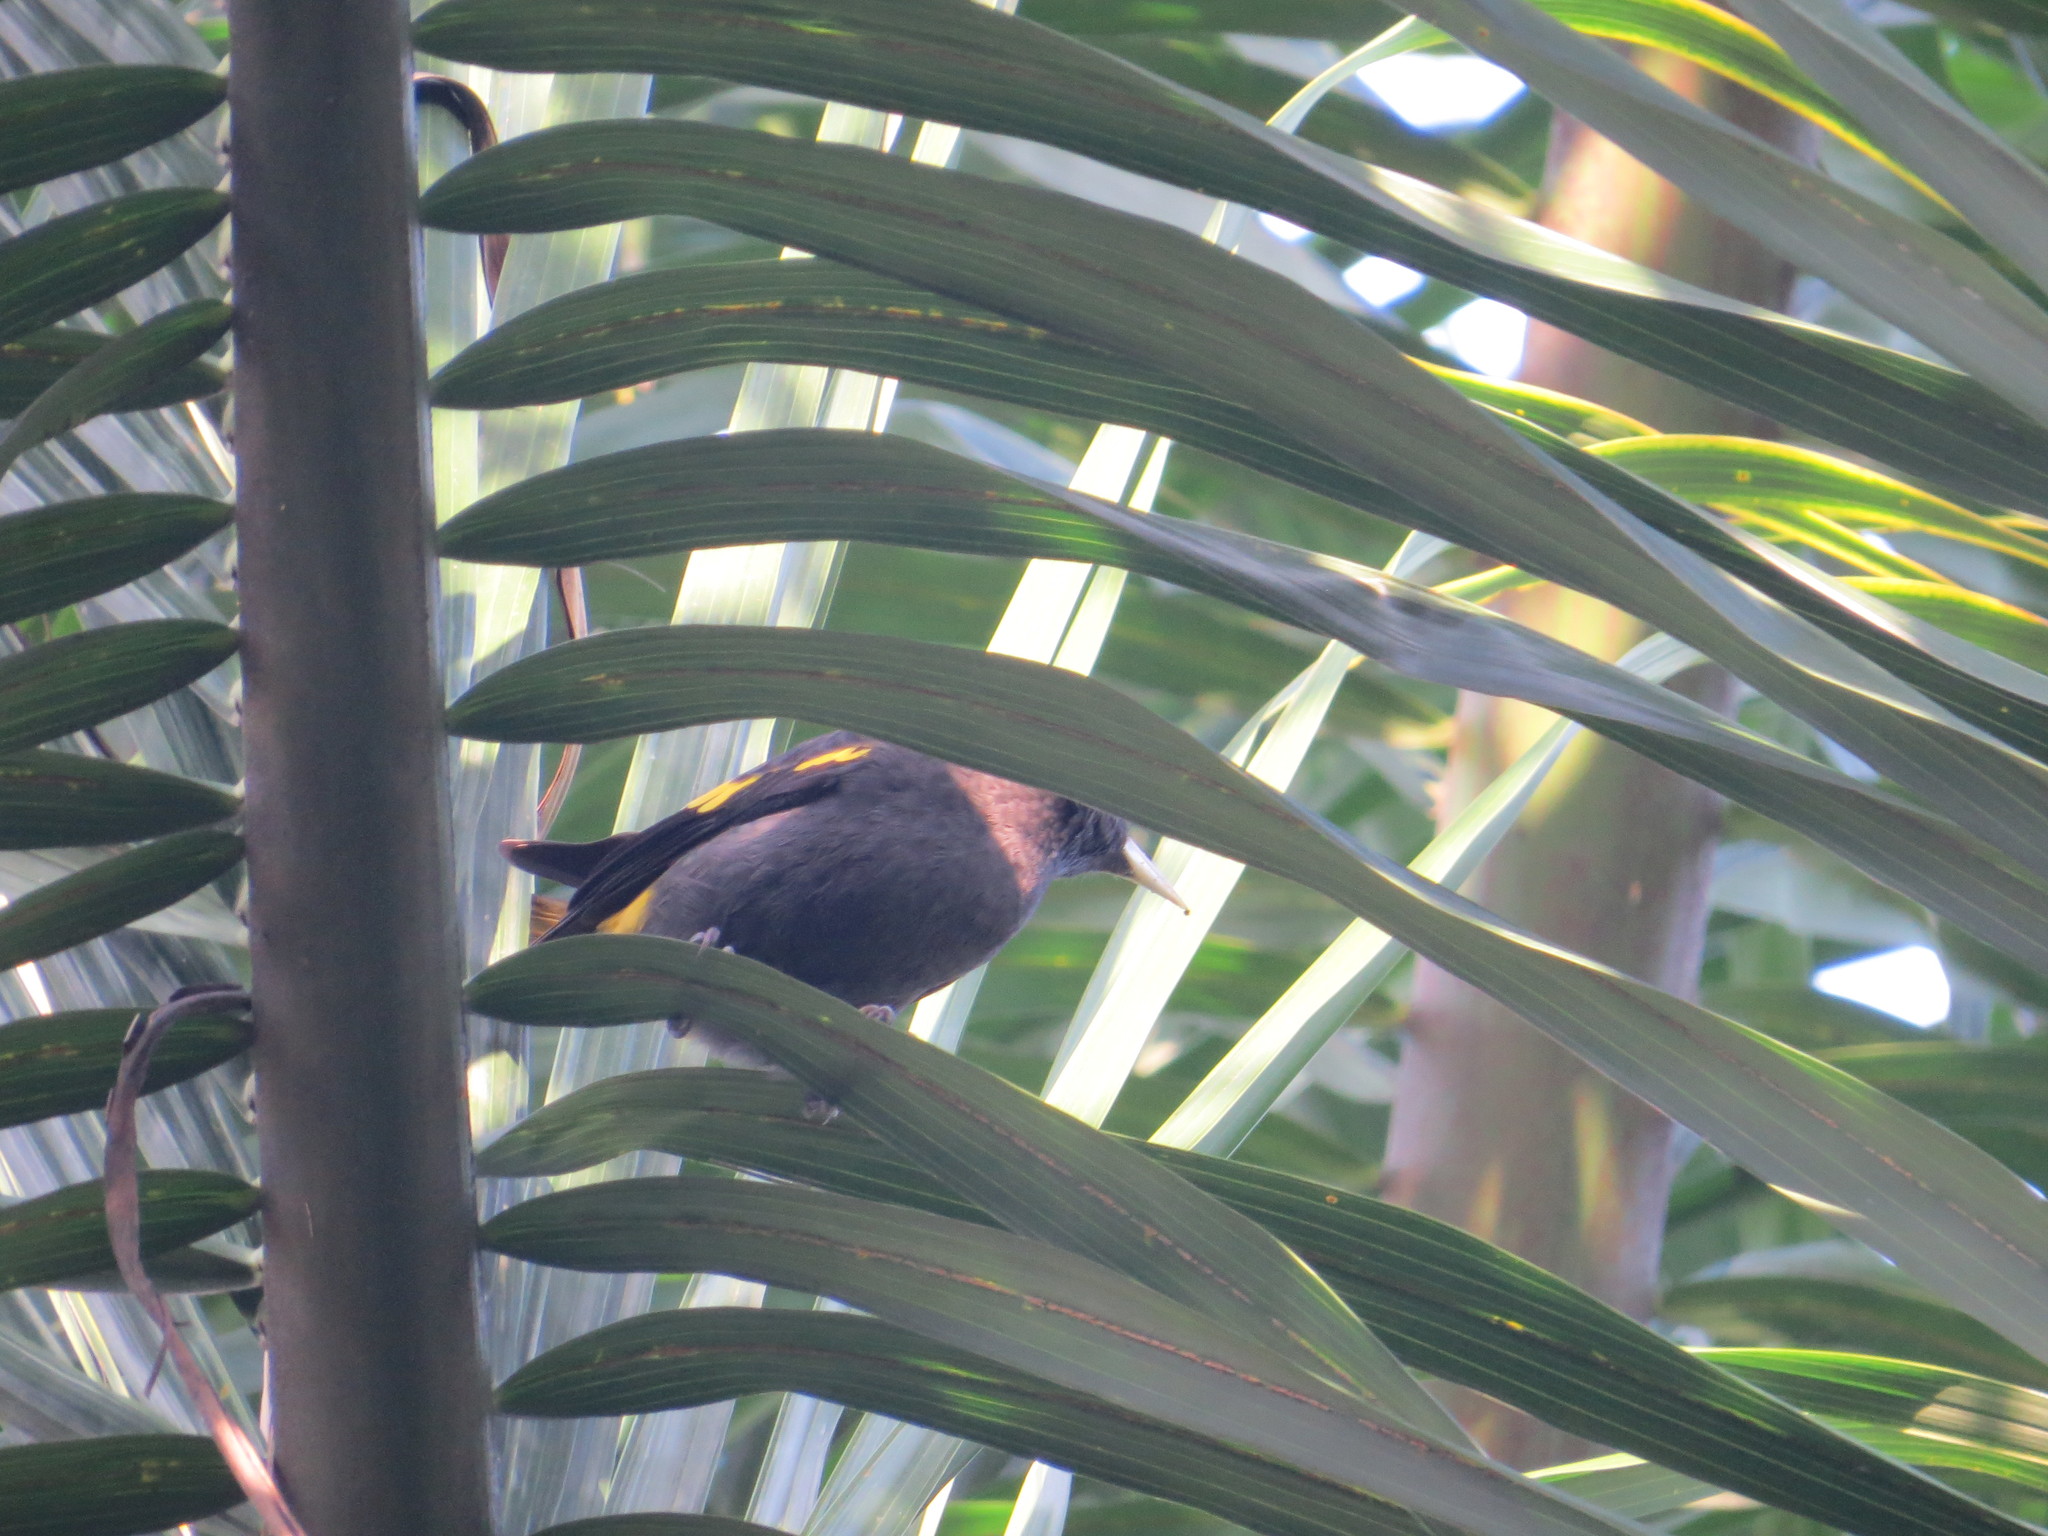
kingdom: Animalia
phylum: Chordata
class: Aves
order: Passeriformes
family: Icteridae
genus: Cacicus
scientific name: Cacicus melanicterus
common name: Yellow-winged cacique
